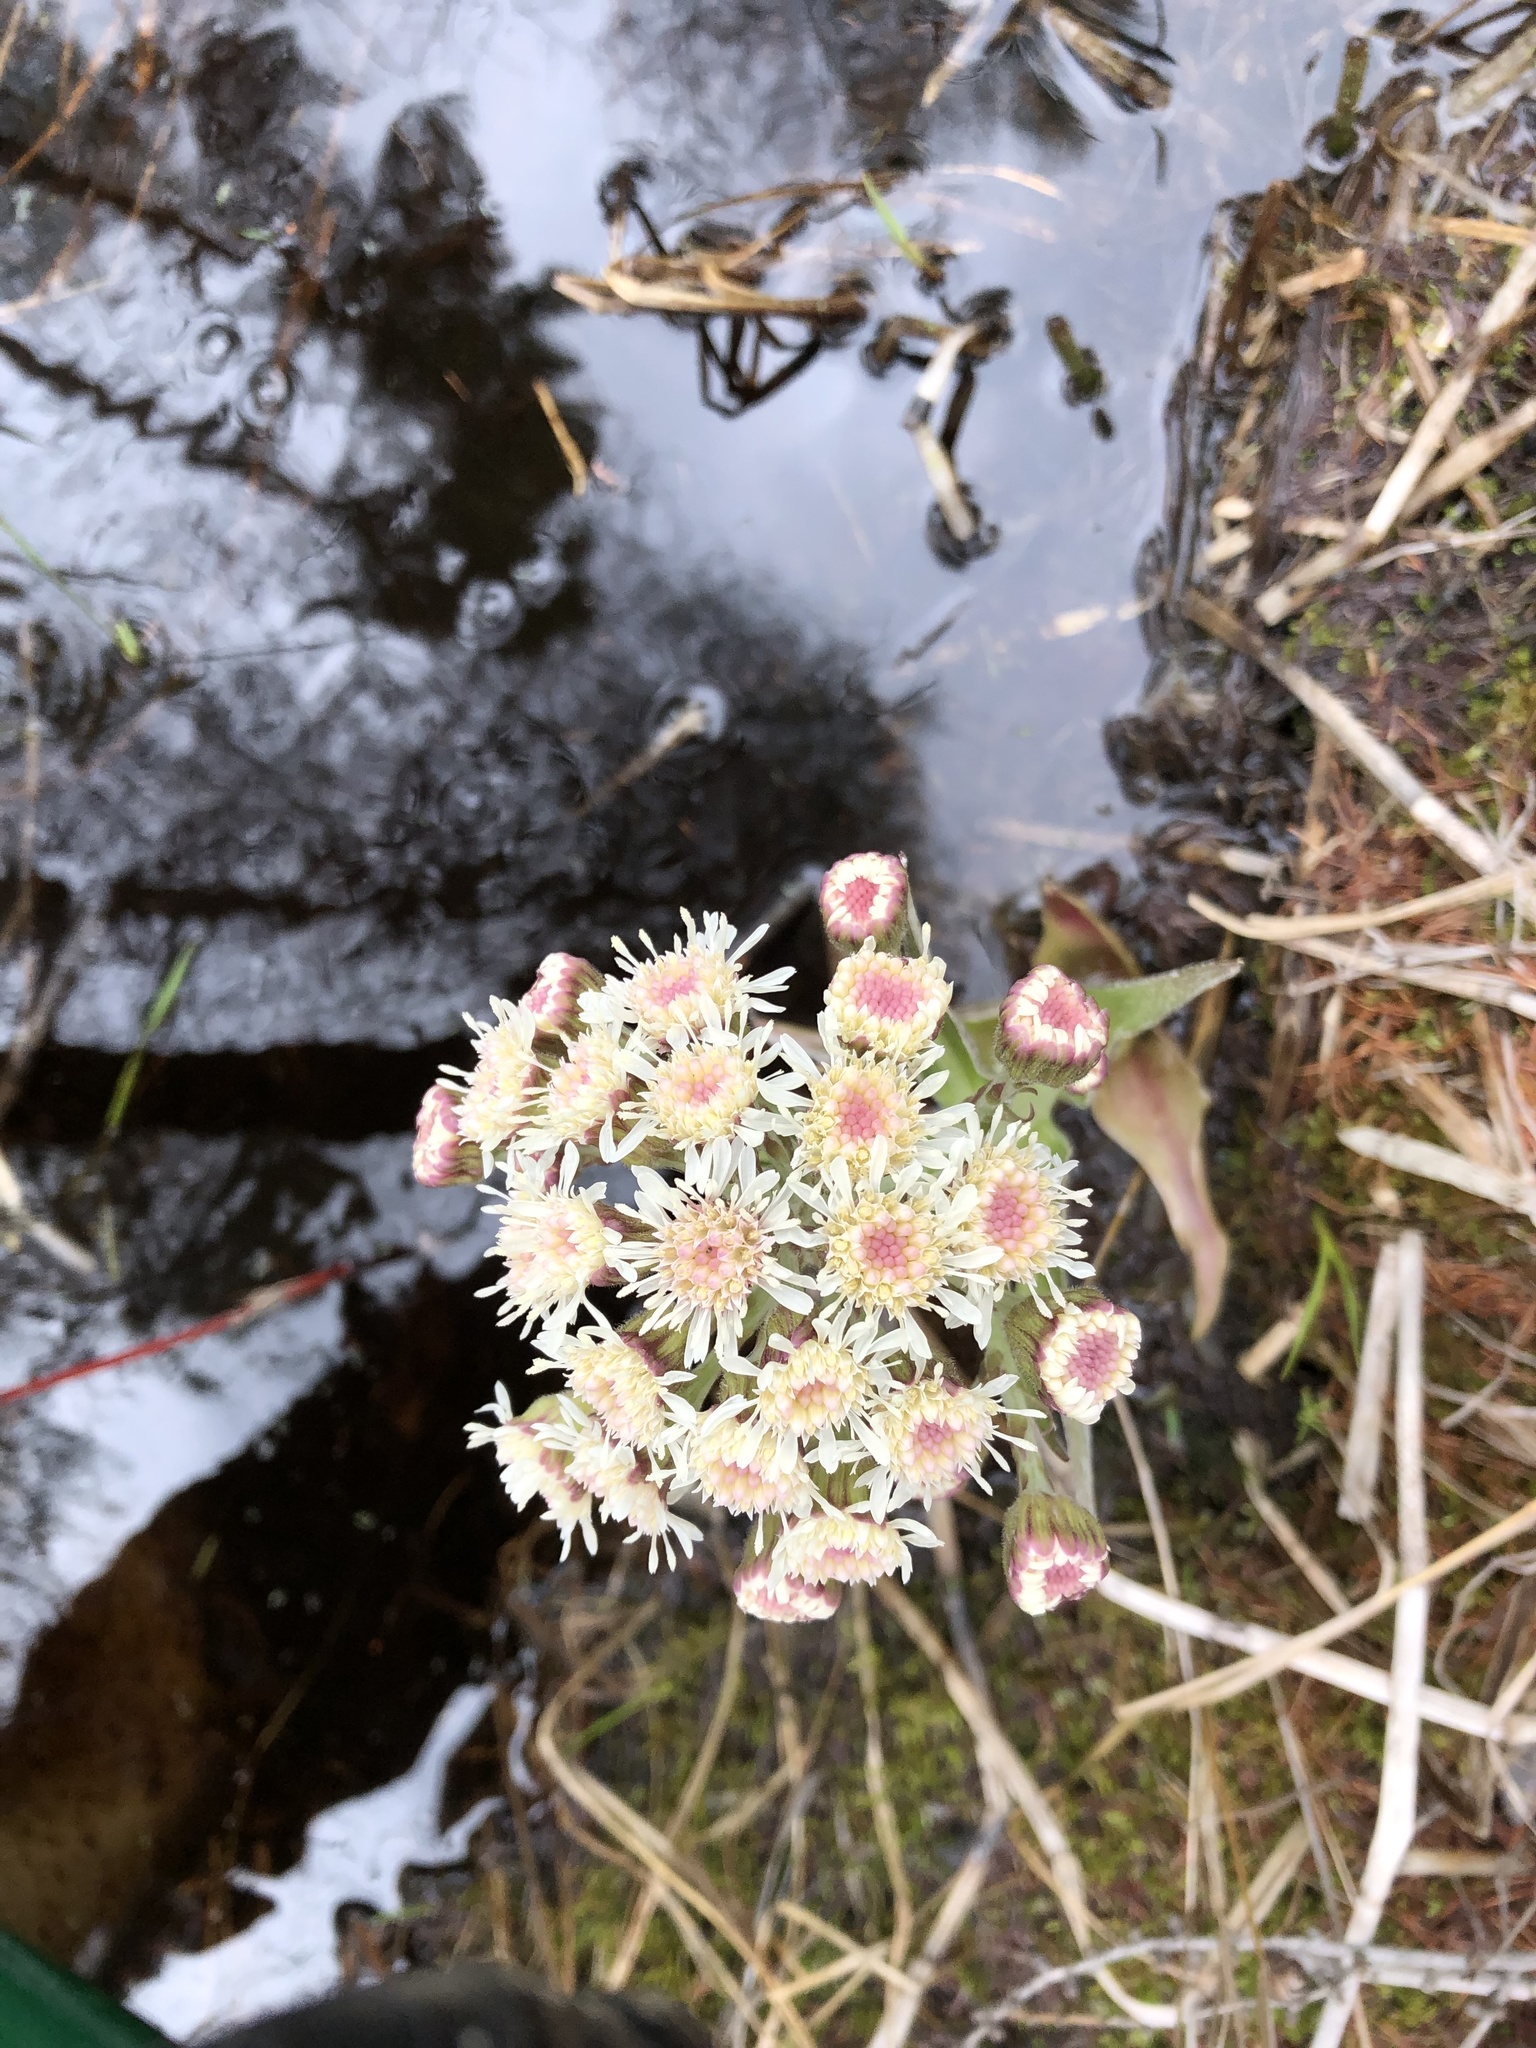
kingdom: Plantae
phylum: Tracheophyta
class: Magnoliopsida
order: Asterales
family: Asteraceae
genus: Petasites
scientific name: Petasites frigidus
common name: Arctic butterbur
